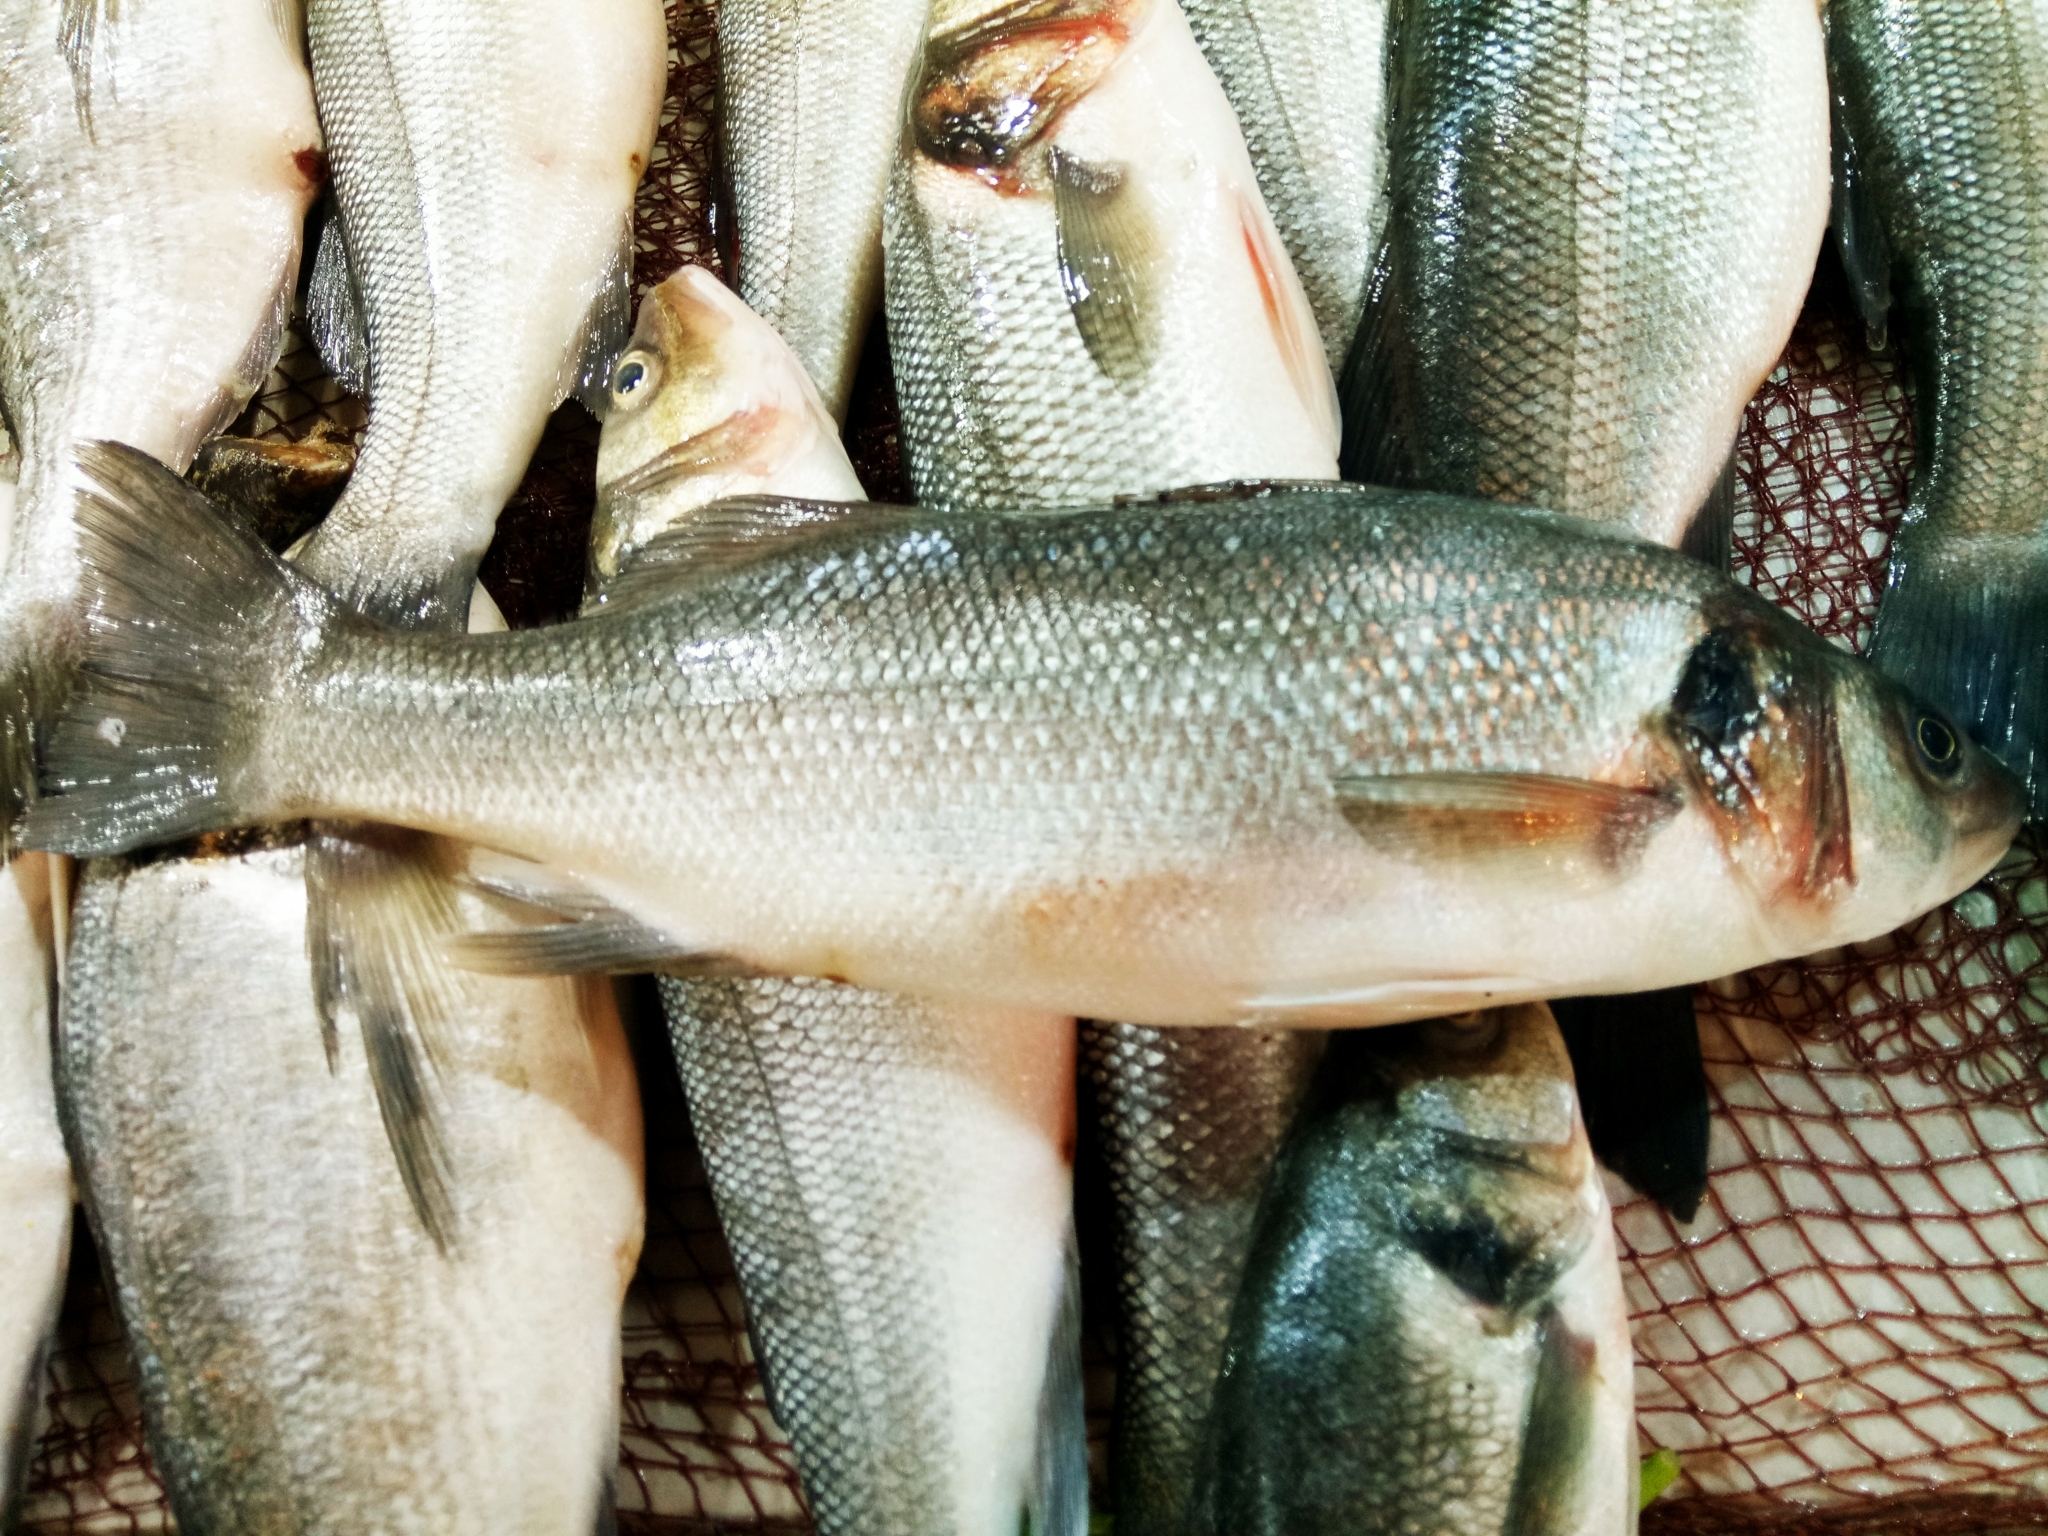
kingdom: Animalia
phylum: Chordata
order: Perciformes
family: Moronidae
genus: Dicentrarchus
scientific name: Dicentrarchus labrax
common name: European seabass
